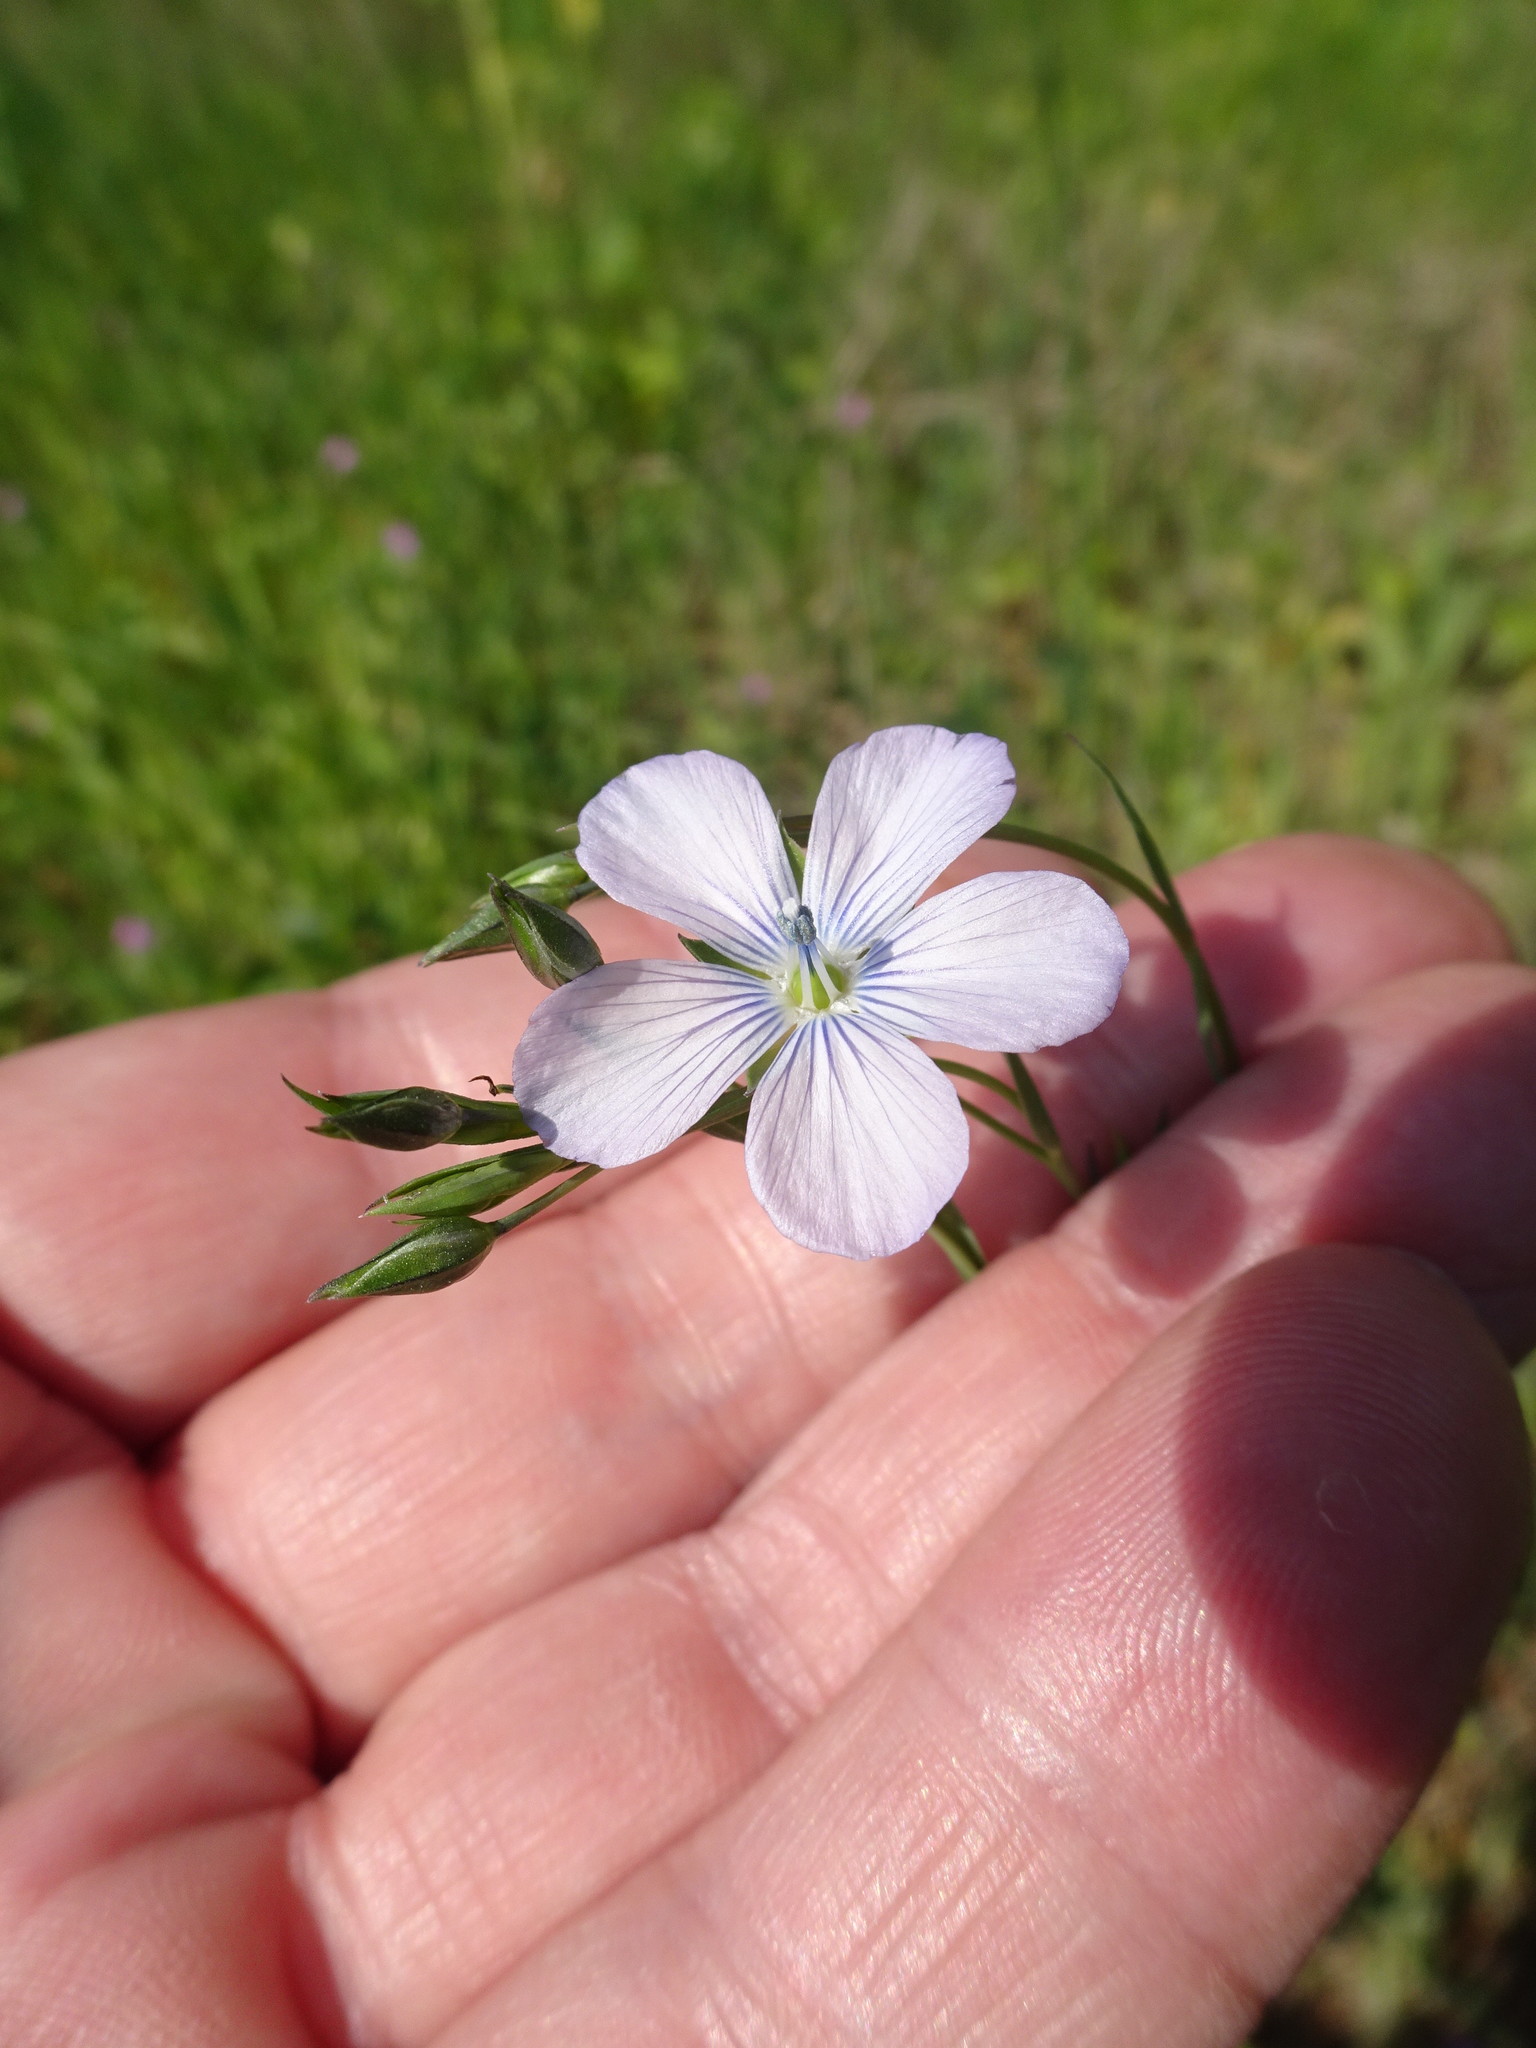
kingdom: Plantae
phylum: Tracheophyta
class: Magnoliopsida
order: Malpighiales
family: Linaceae
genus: Linum
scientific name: Linum bienne
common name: Pale flax
